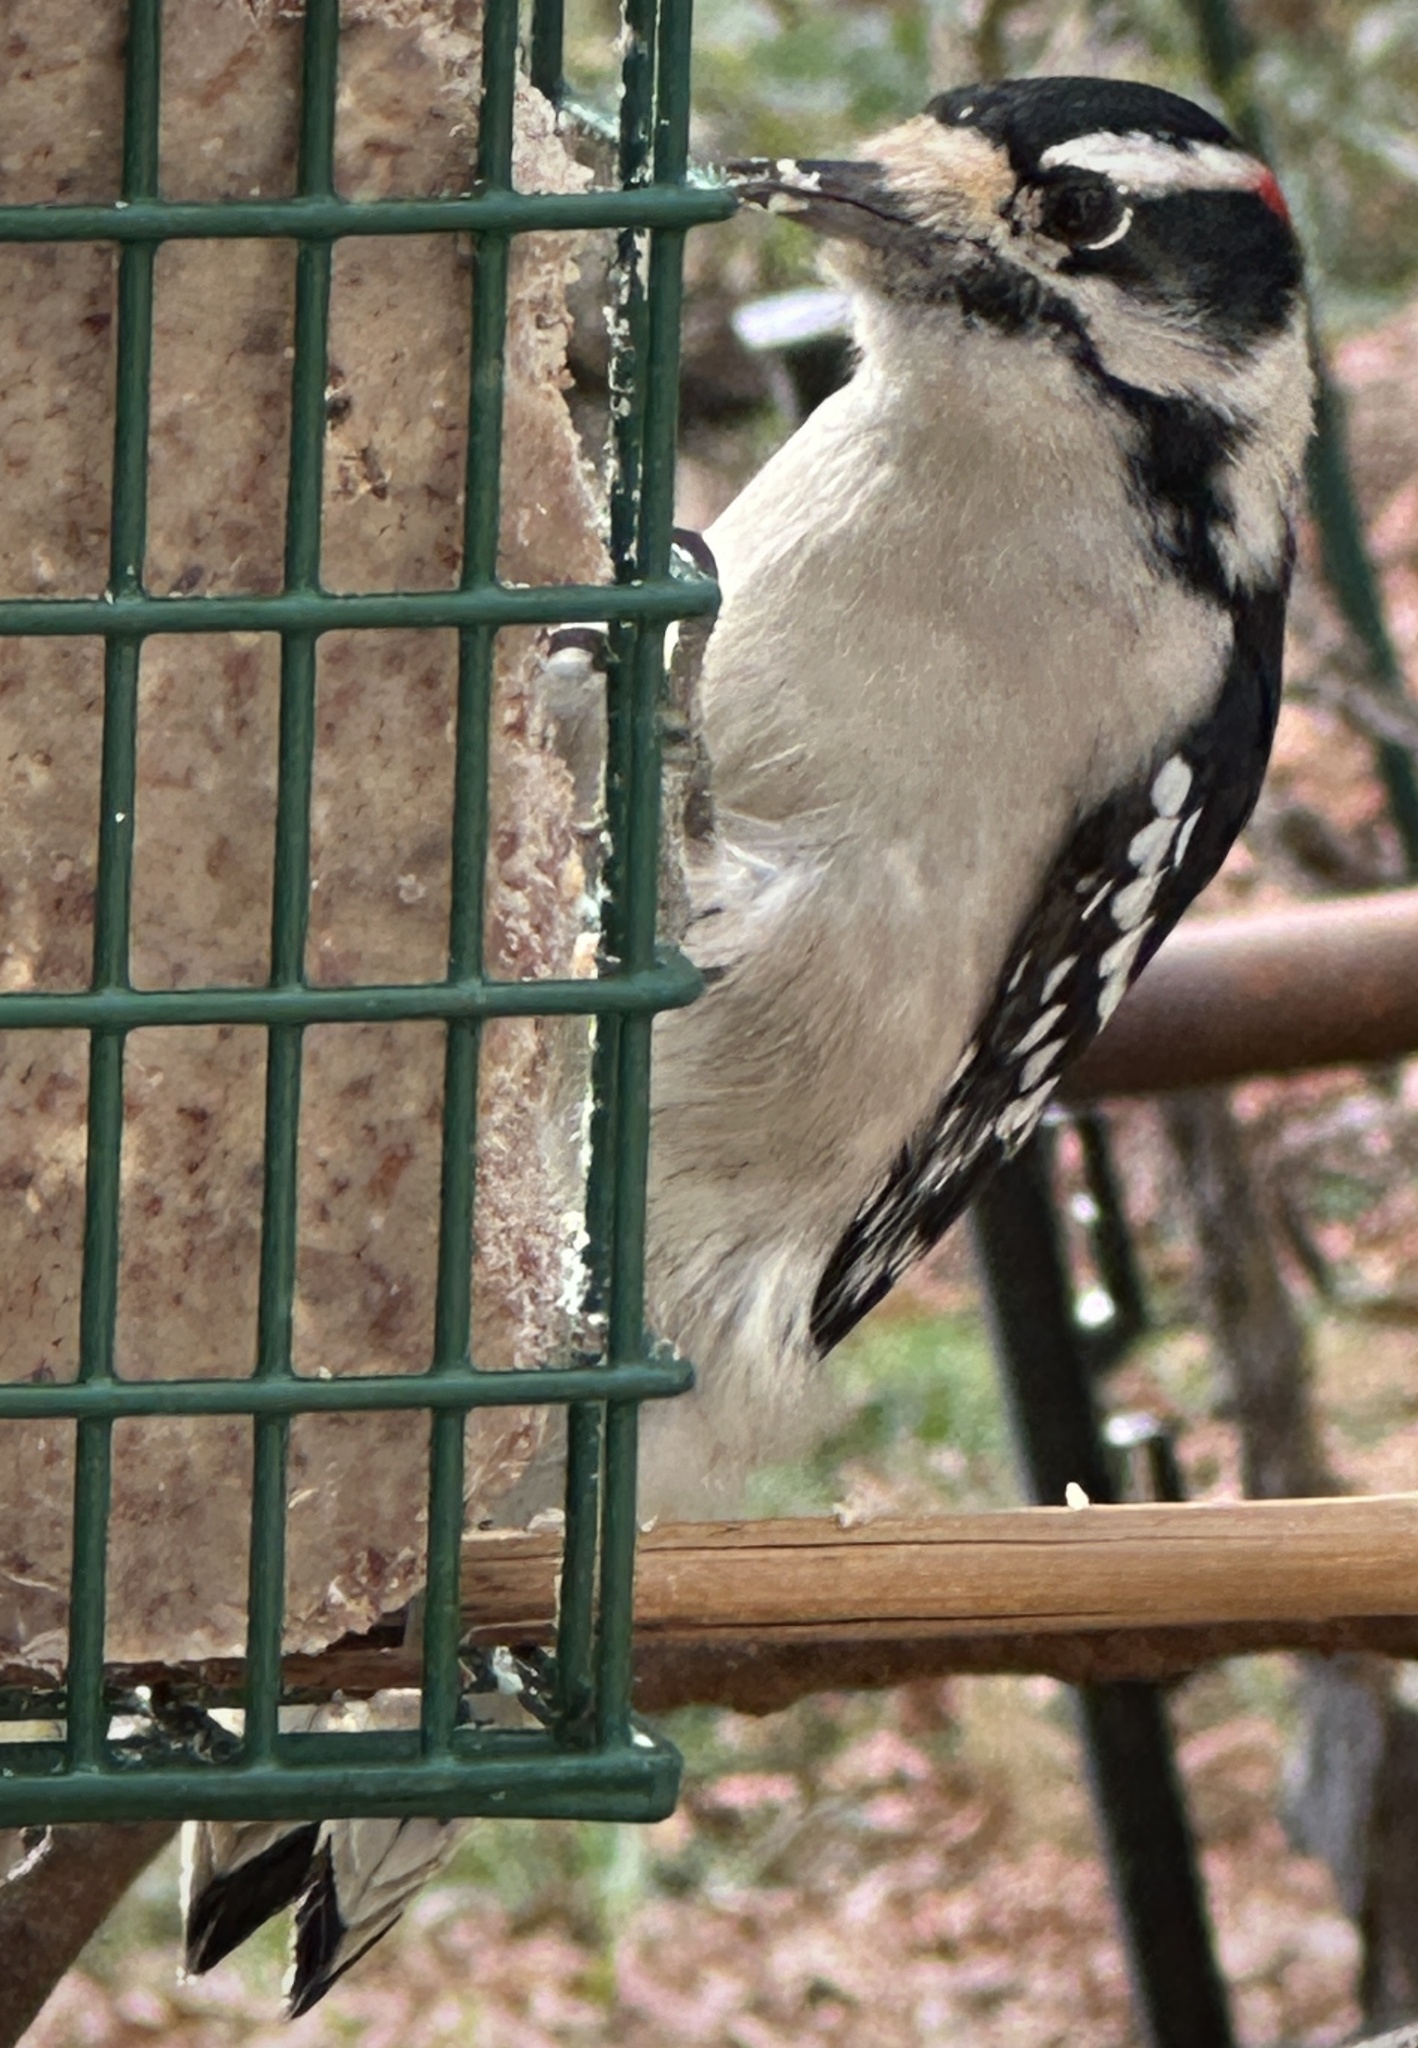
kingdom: Animalia
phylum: Chordata
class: Aves
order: Piciformes
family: Picidae
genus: Dryobates
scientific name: Dryobates pubescens
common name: Downy woodpecker
